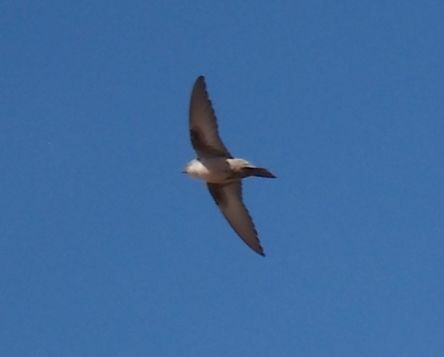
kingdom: Animalia
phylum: Chordata
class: Aves
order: Passeriformes
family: Hirundinidae
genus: Ptyonoprogne
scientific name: Ptyonoprogne rupestris
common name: Eurasian crag martin
